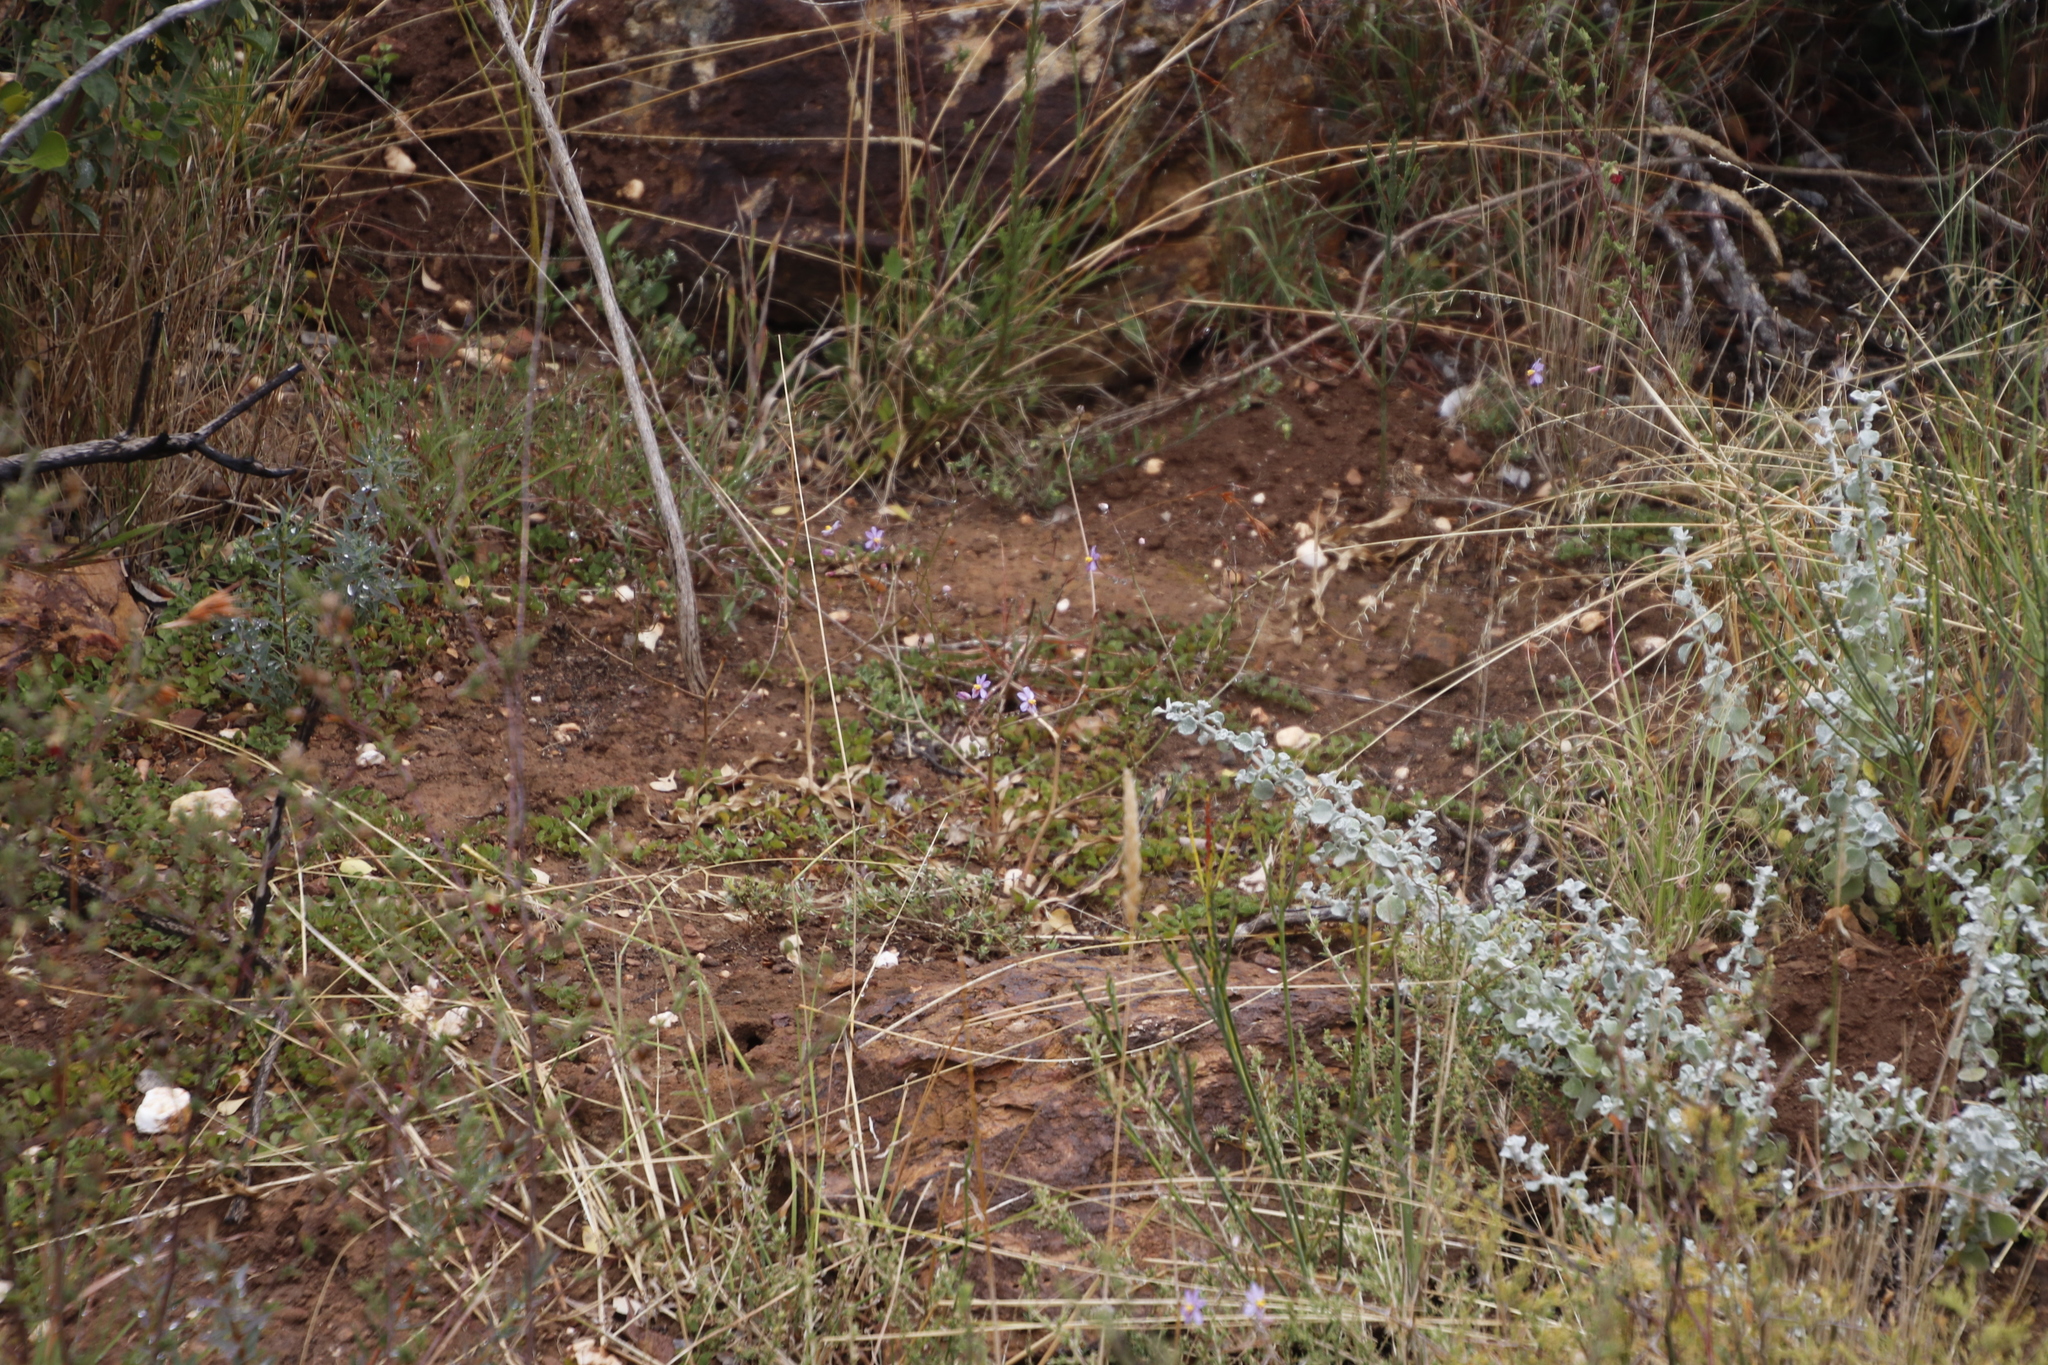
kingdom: Plantae
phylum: Tracheophyta
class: Liliopsida
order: Asparagales
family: Tecophilaeaceae
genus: Cyanella
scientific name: Cyanella hyacinthoides
